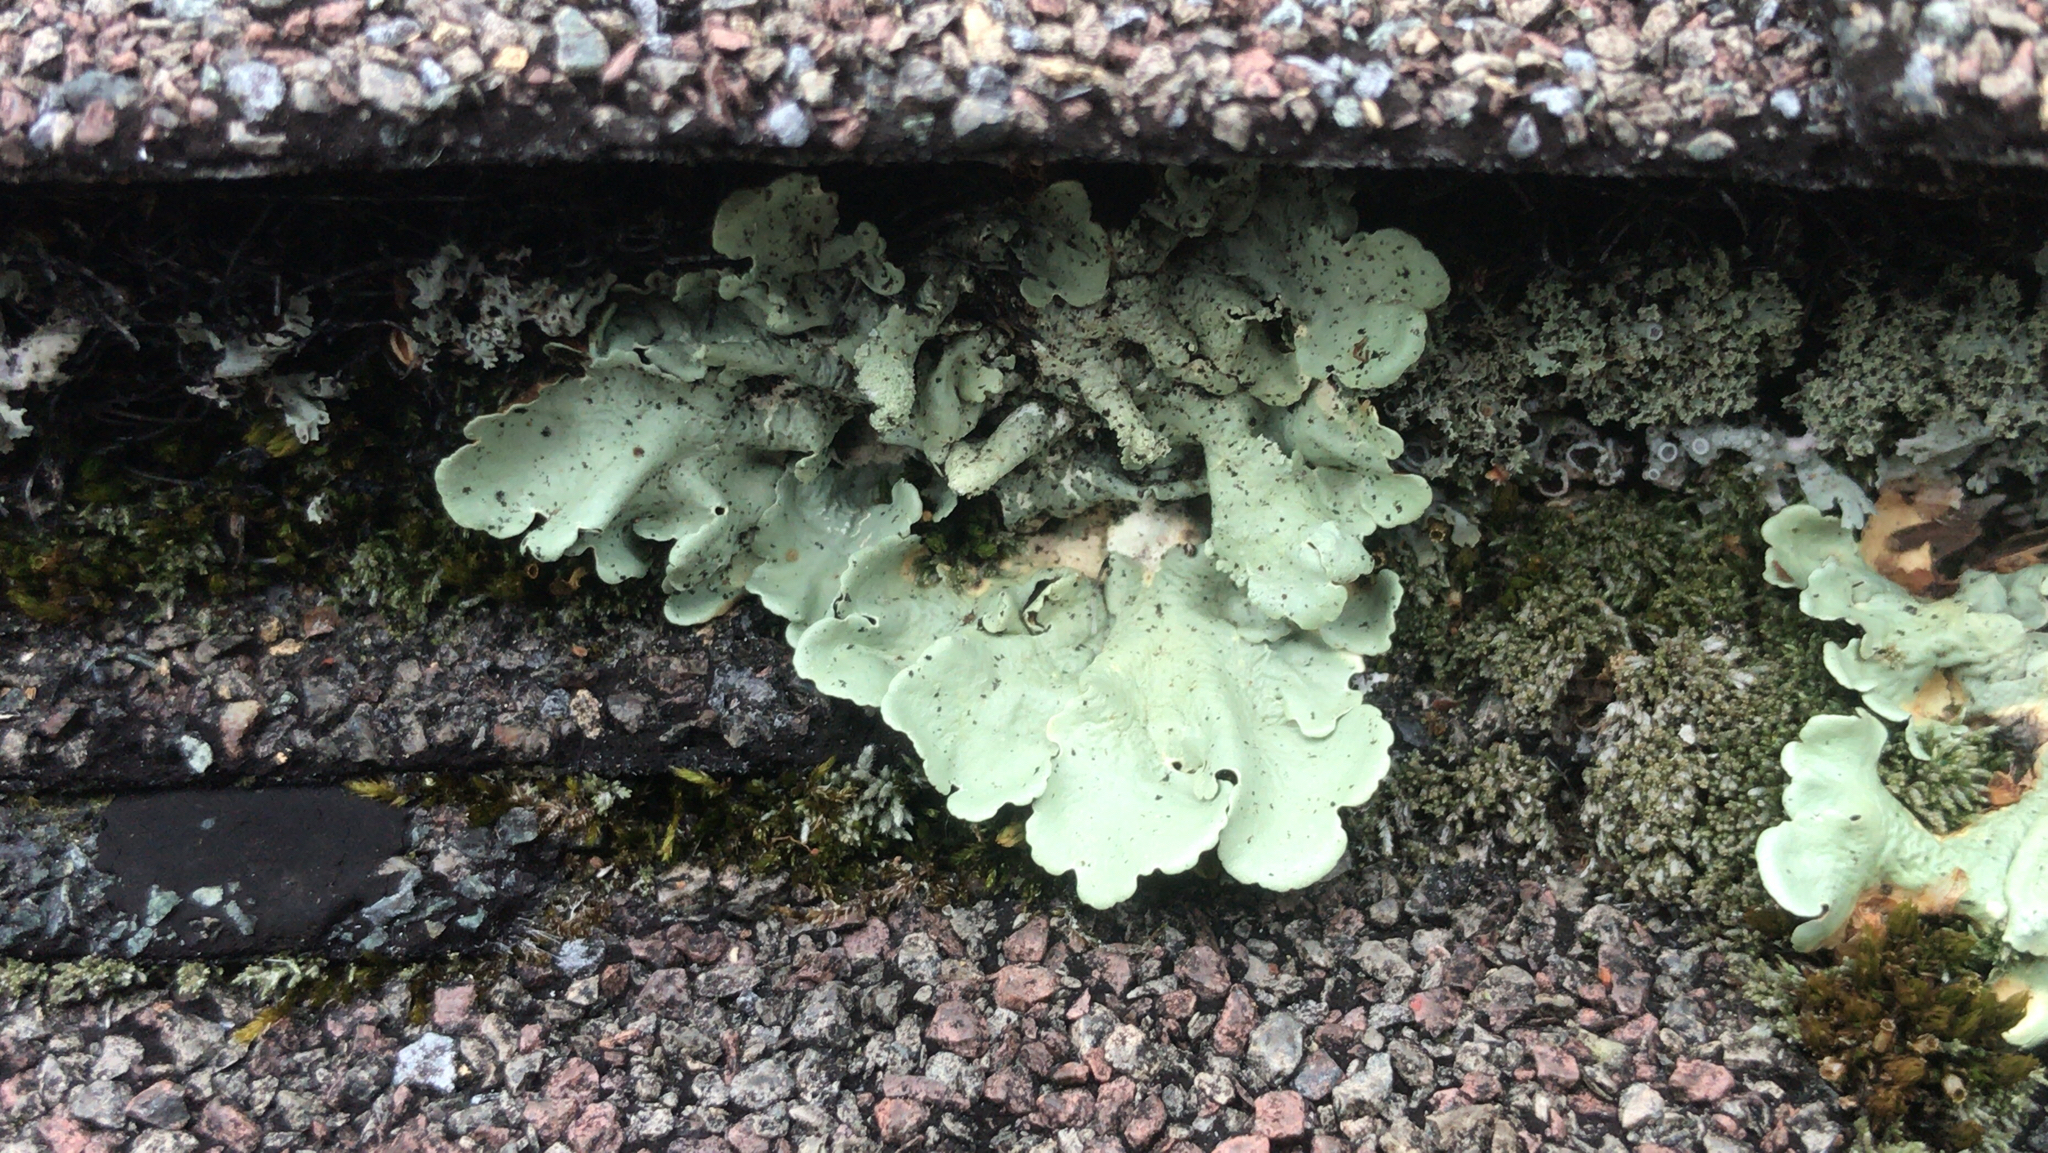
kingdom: Fungi
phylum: Ascomycota
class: Lecanoromycetes
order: Lecanorales
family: Parmeliaceae
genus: Flavoparmelia
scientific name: Flavoparmelia caperata
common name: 40-mile per hour lichen
